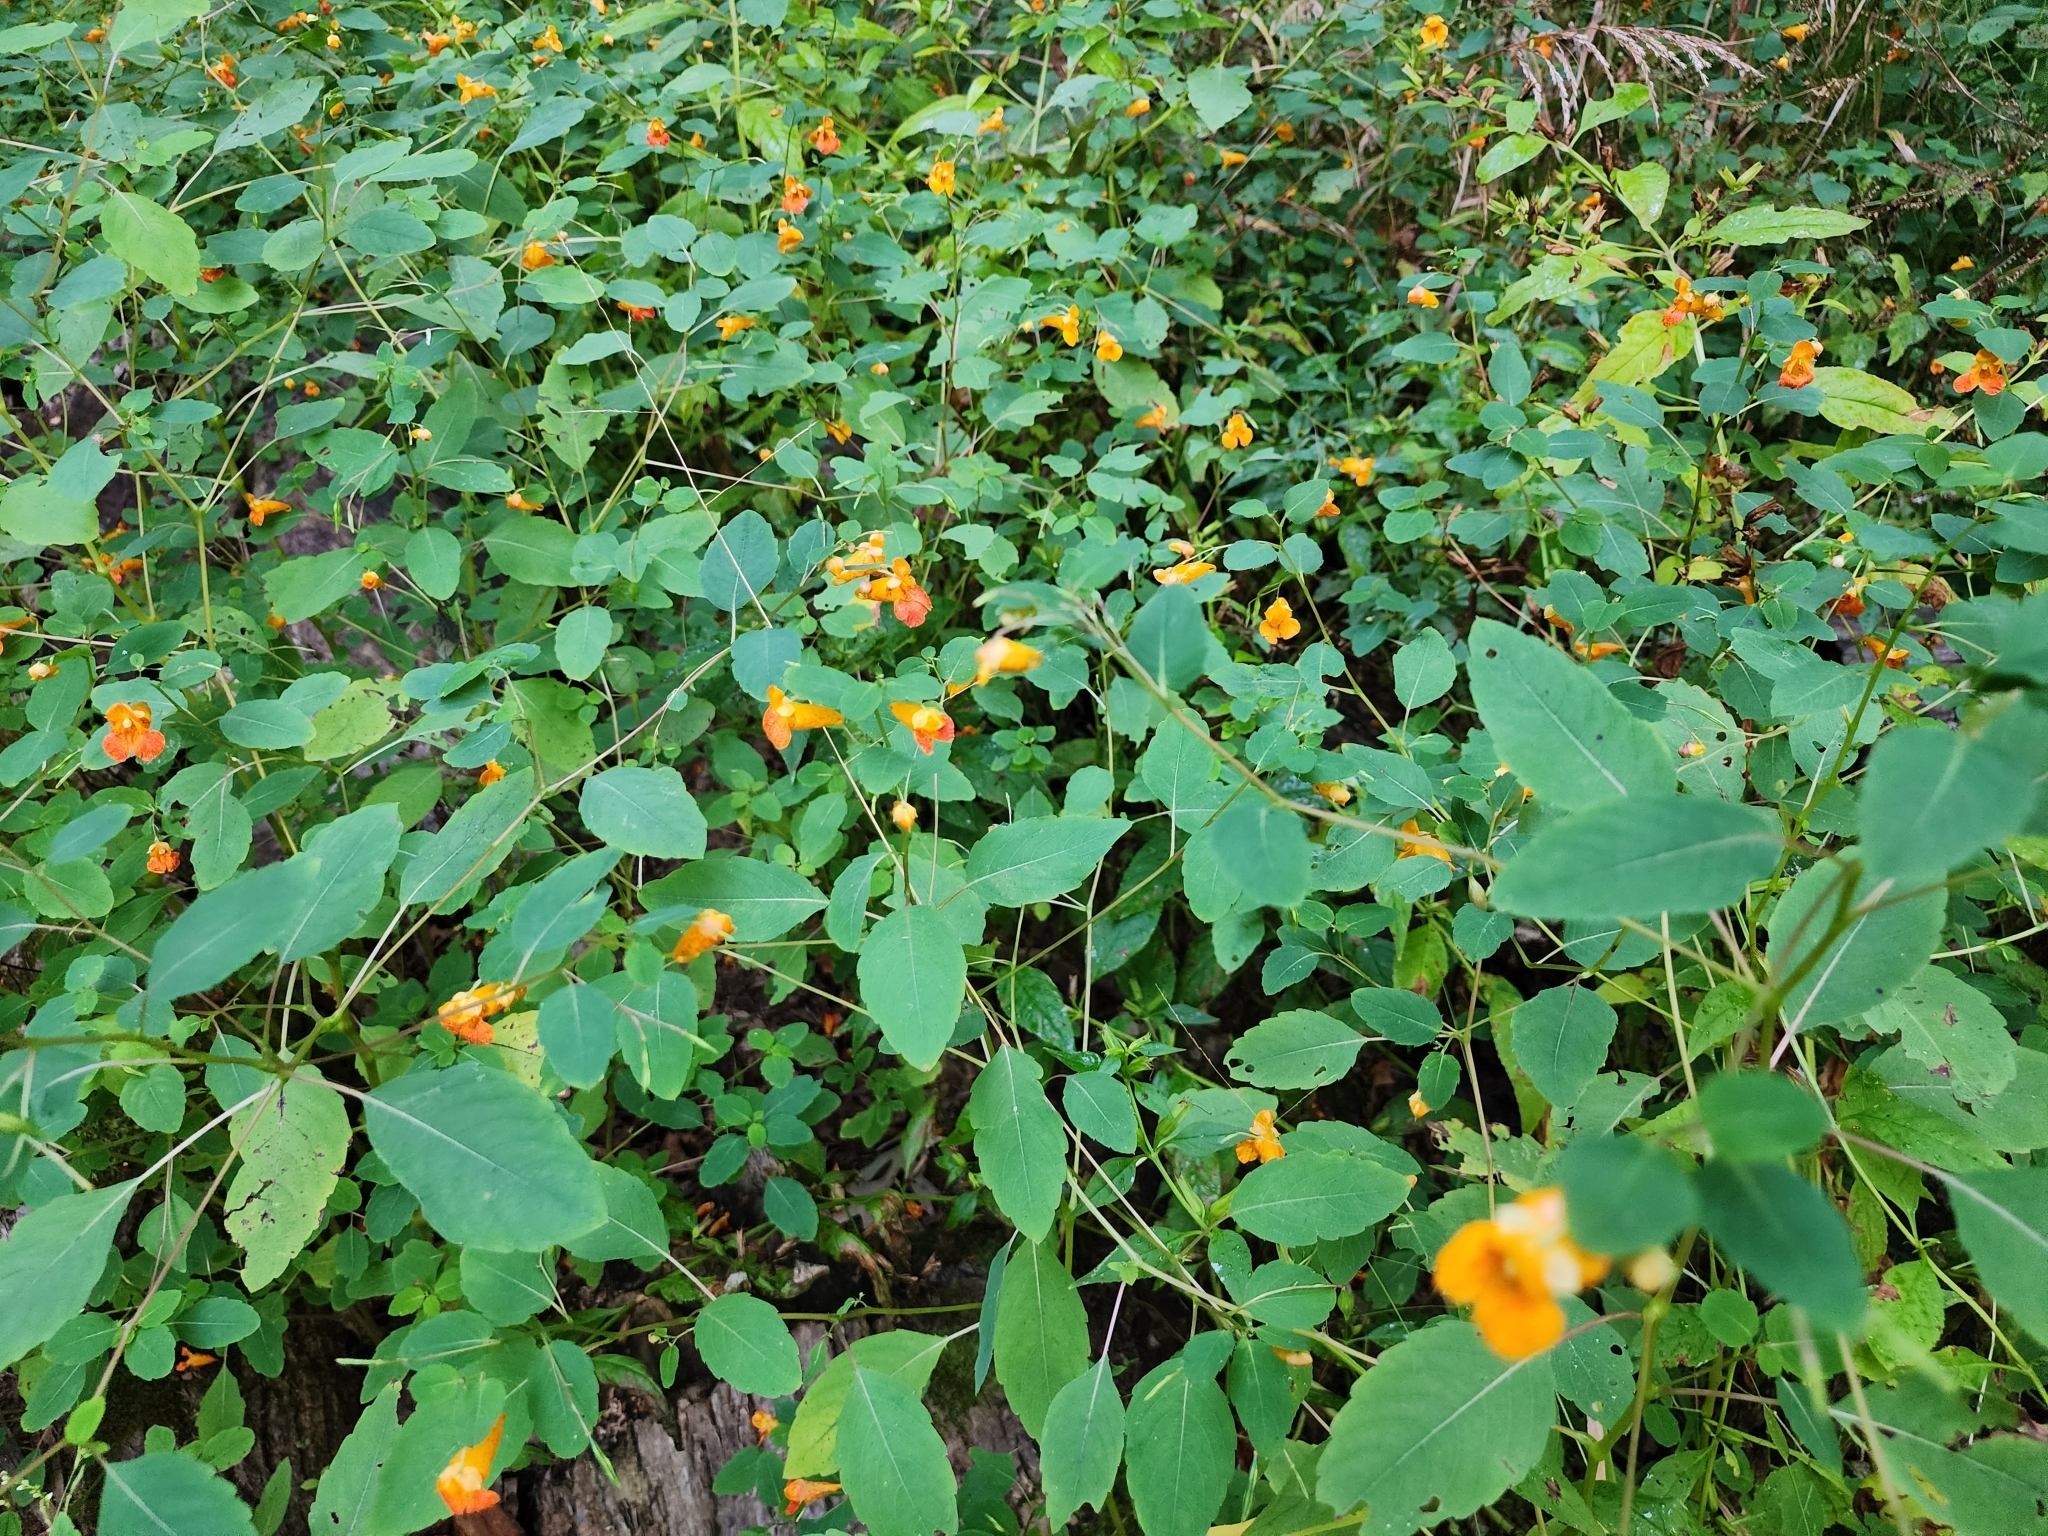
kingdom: Plantae
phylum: Tracheophyta
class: Magnoliopsida
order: Ericales
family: Balsaminaceae
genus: Impatiens
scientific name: Impatiens capensis
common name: Orange balsam
